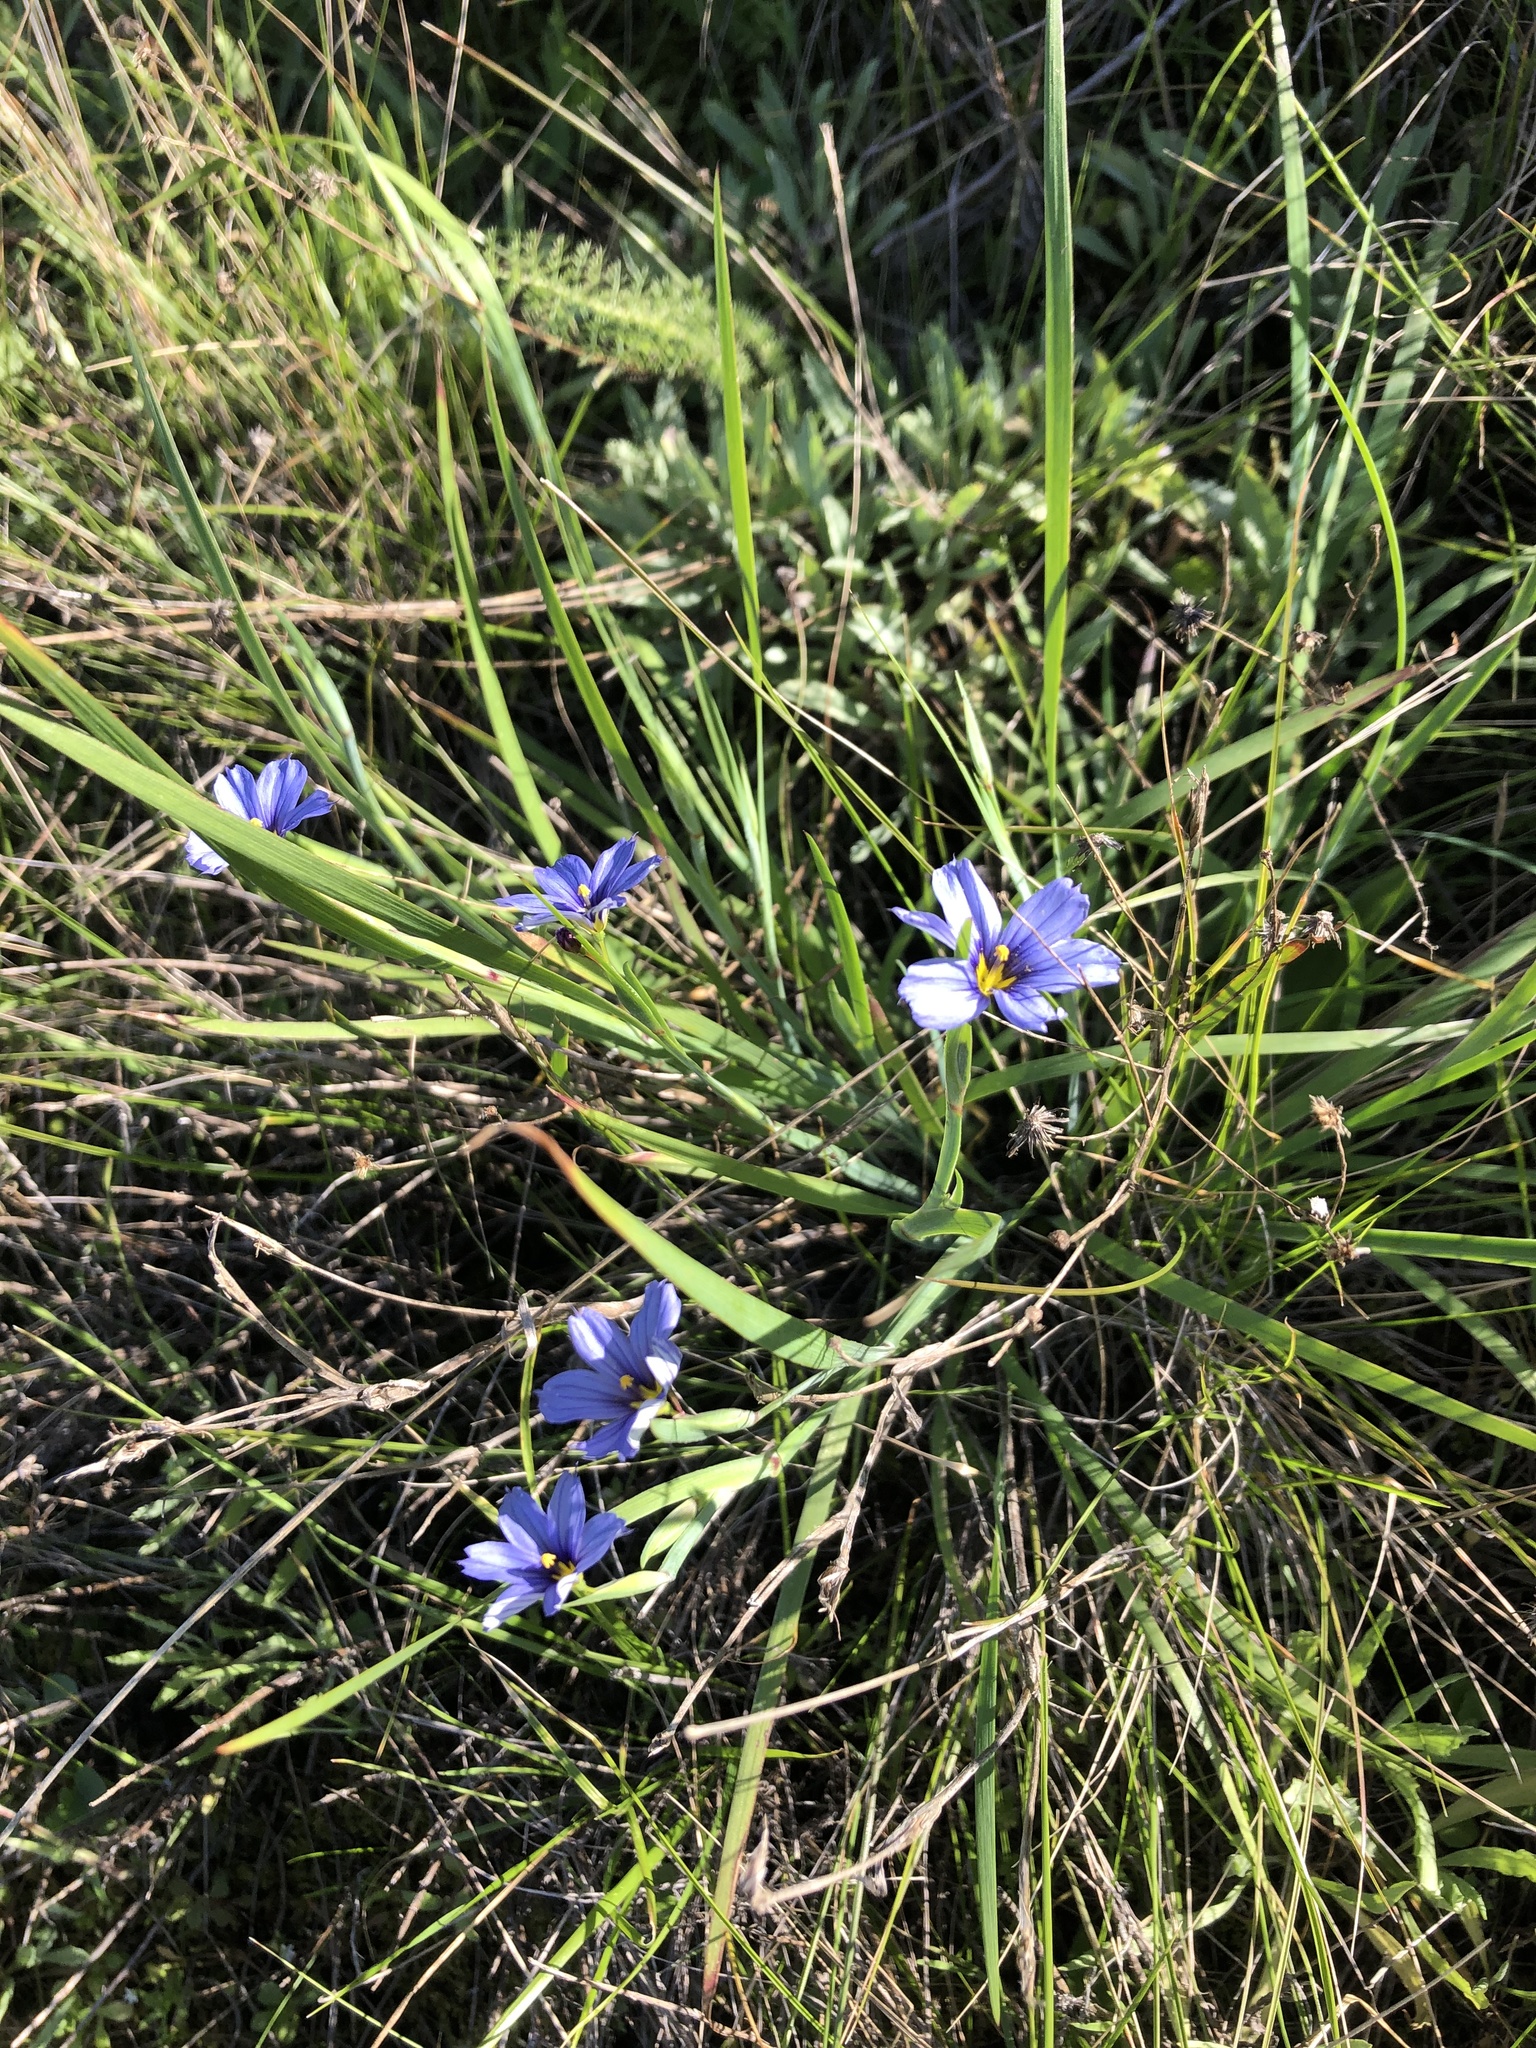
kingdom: Plantae
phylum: Tracheophyta
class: Liliopsida
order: Asparagales
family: Iridaceae
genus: Sisyrinchium
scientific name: Sisyrinchium bellum
